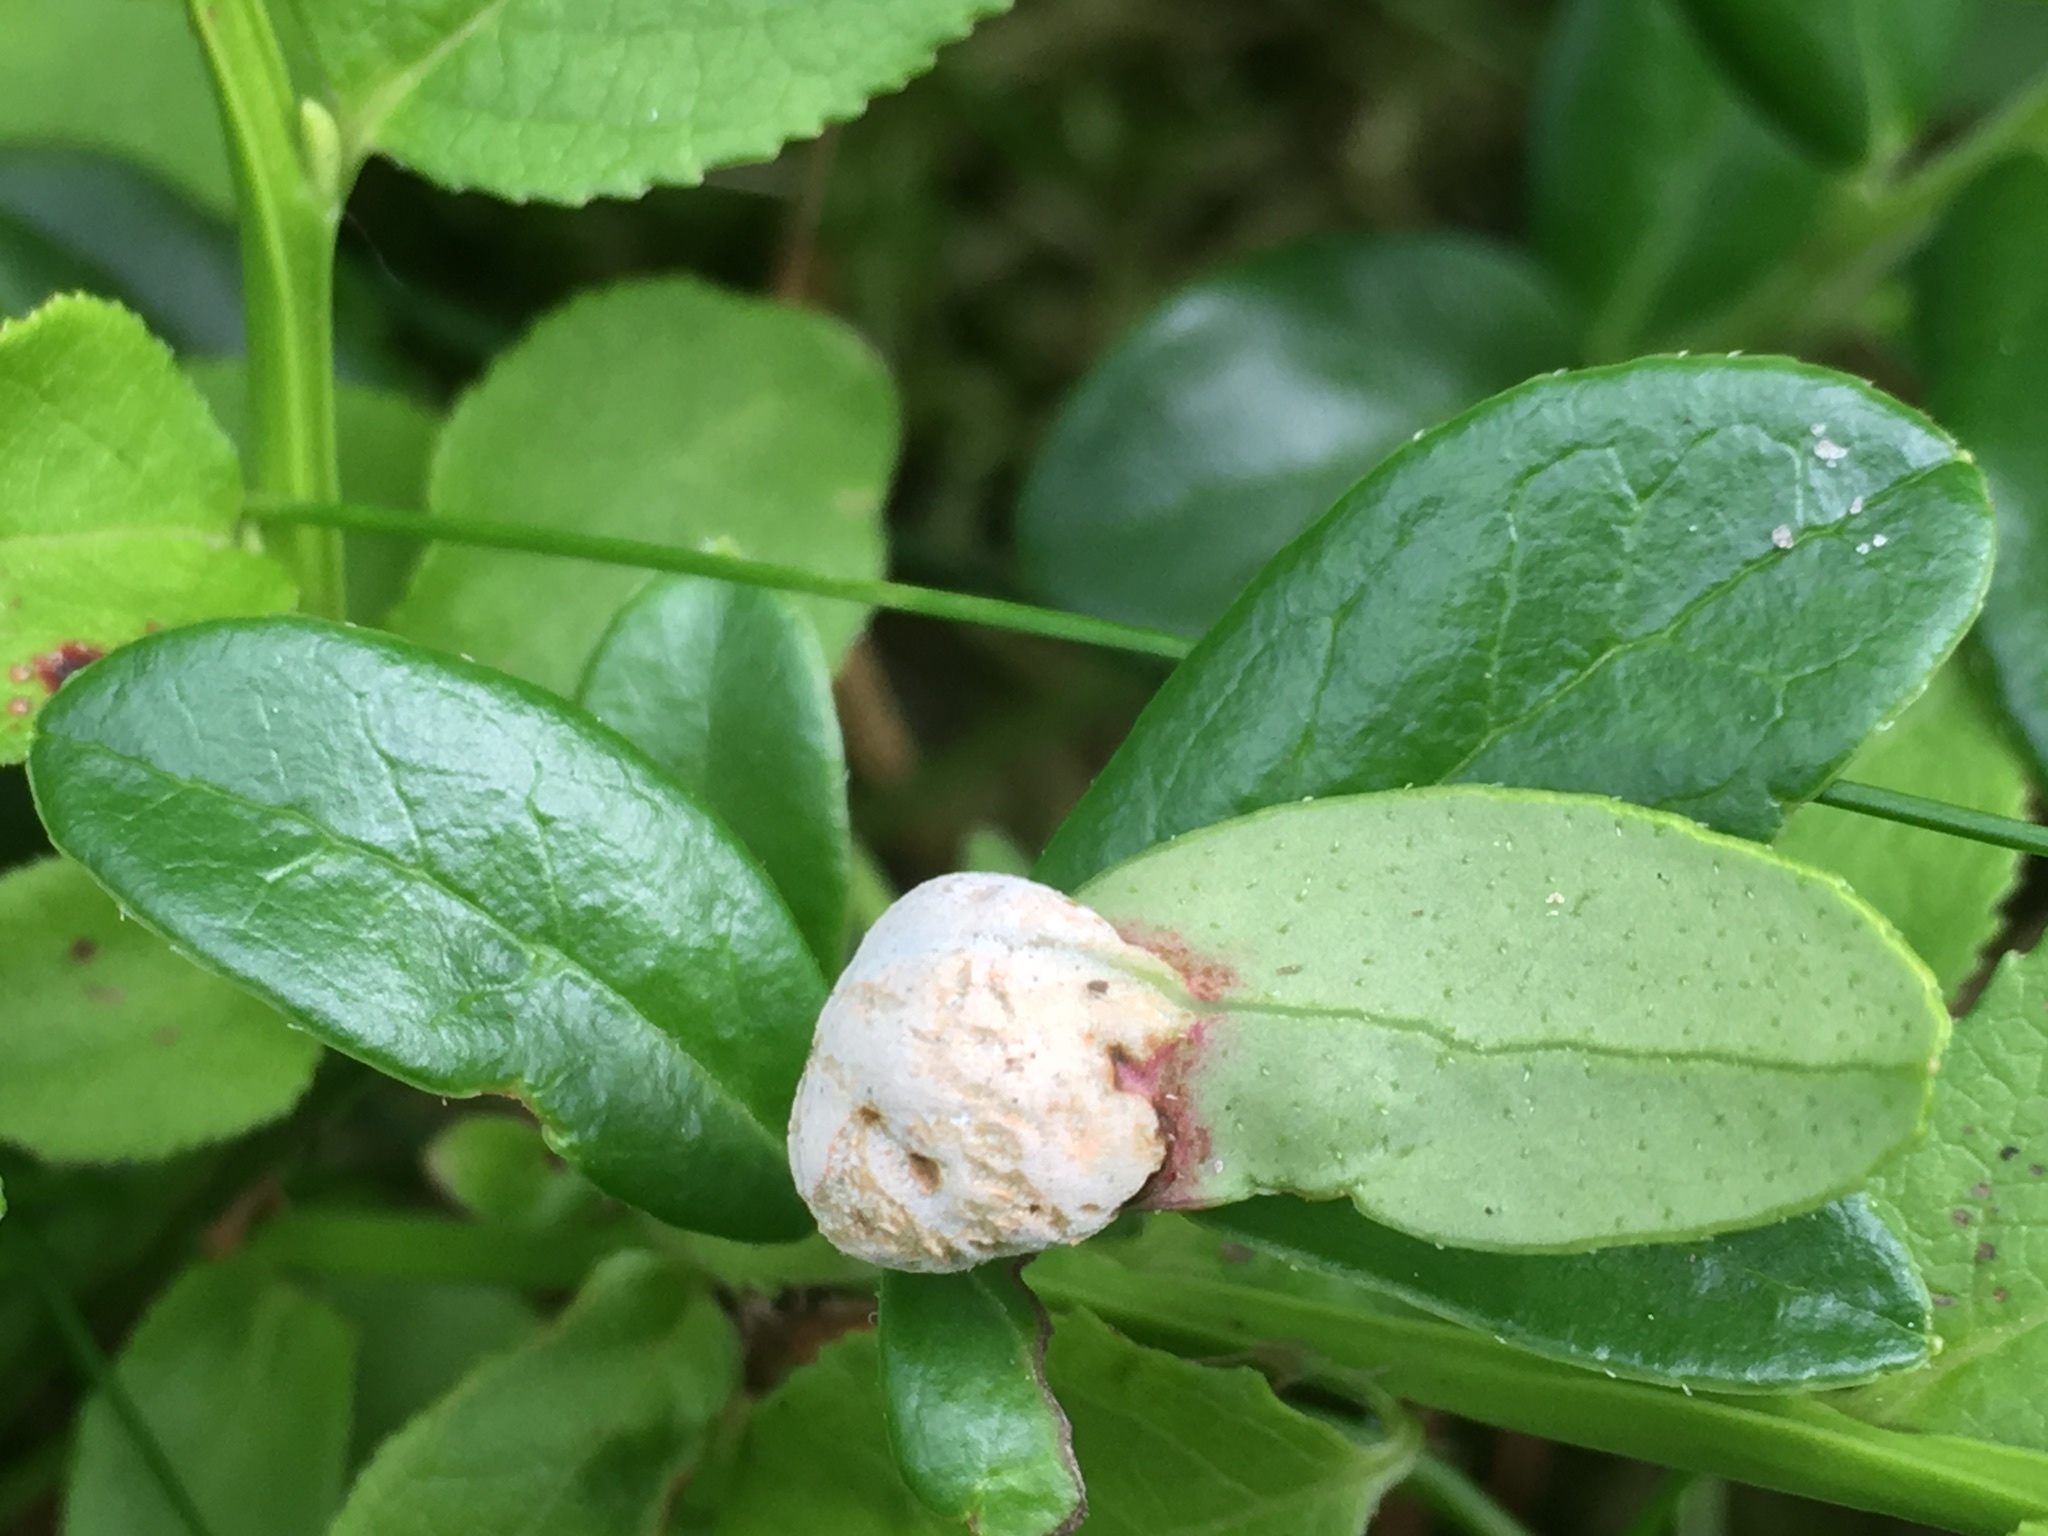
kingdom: Fungi
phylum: Basidiomycota
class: Exobasidiomycetes
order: Exobasidiales
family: Exobasidiaceae
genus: Exobasidium
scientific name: Exobasidium vaccinii
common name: Cowberry redleaf
